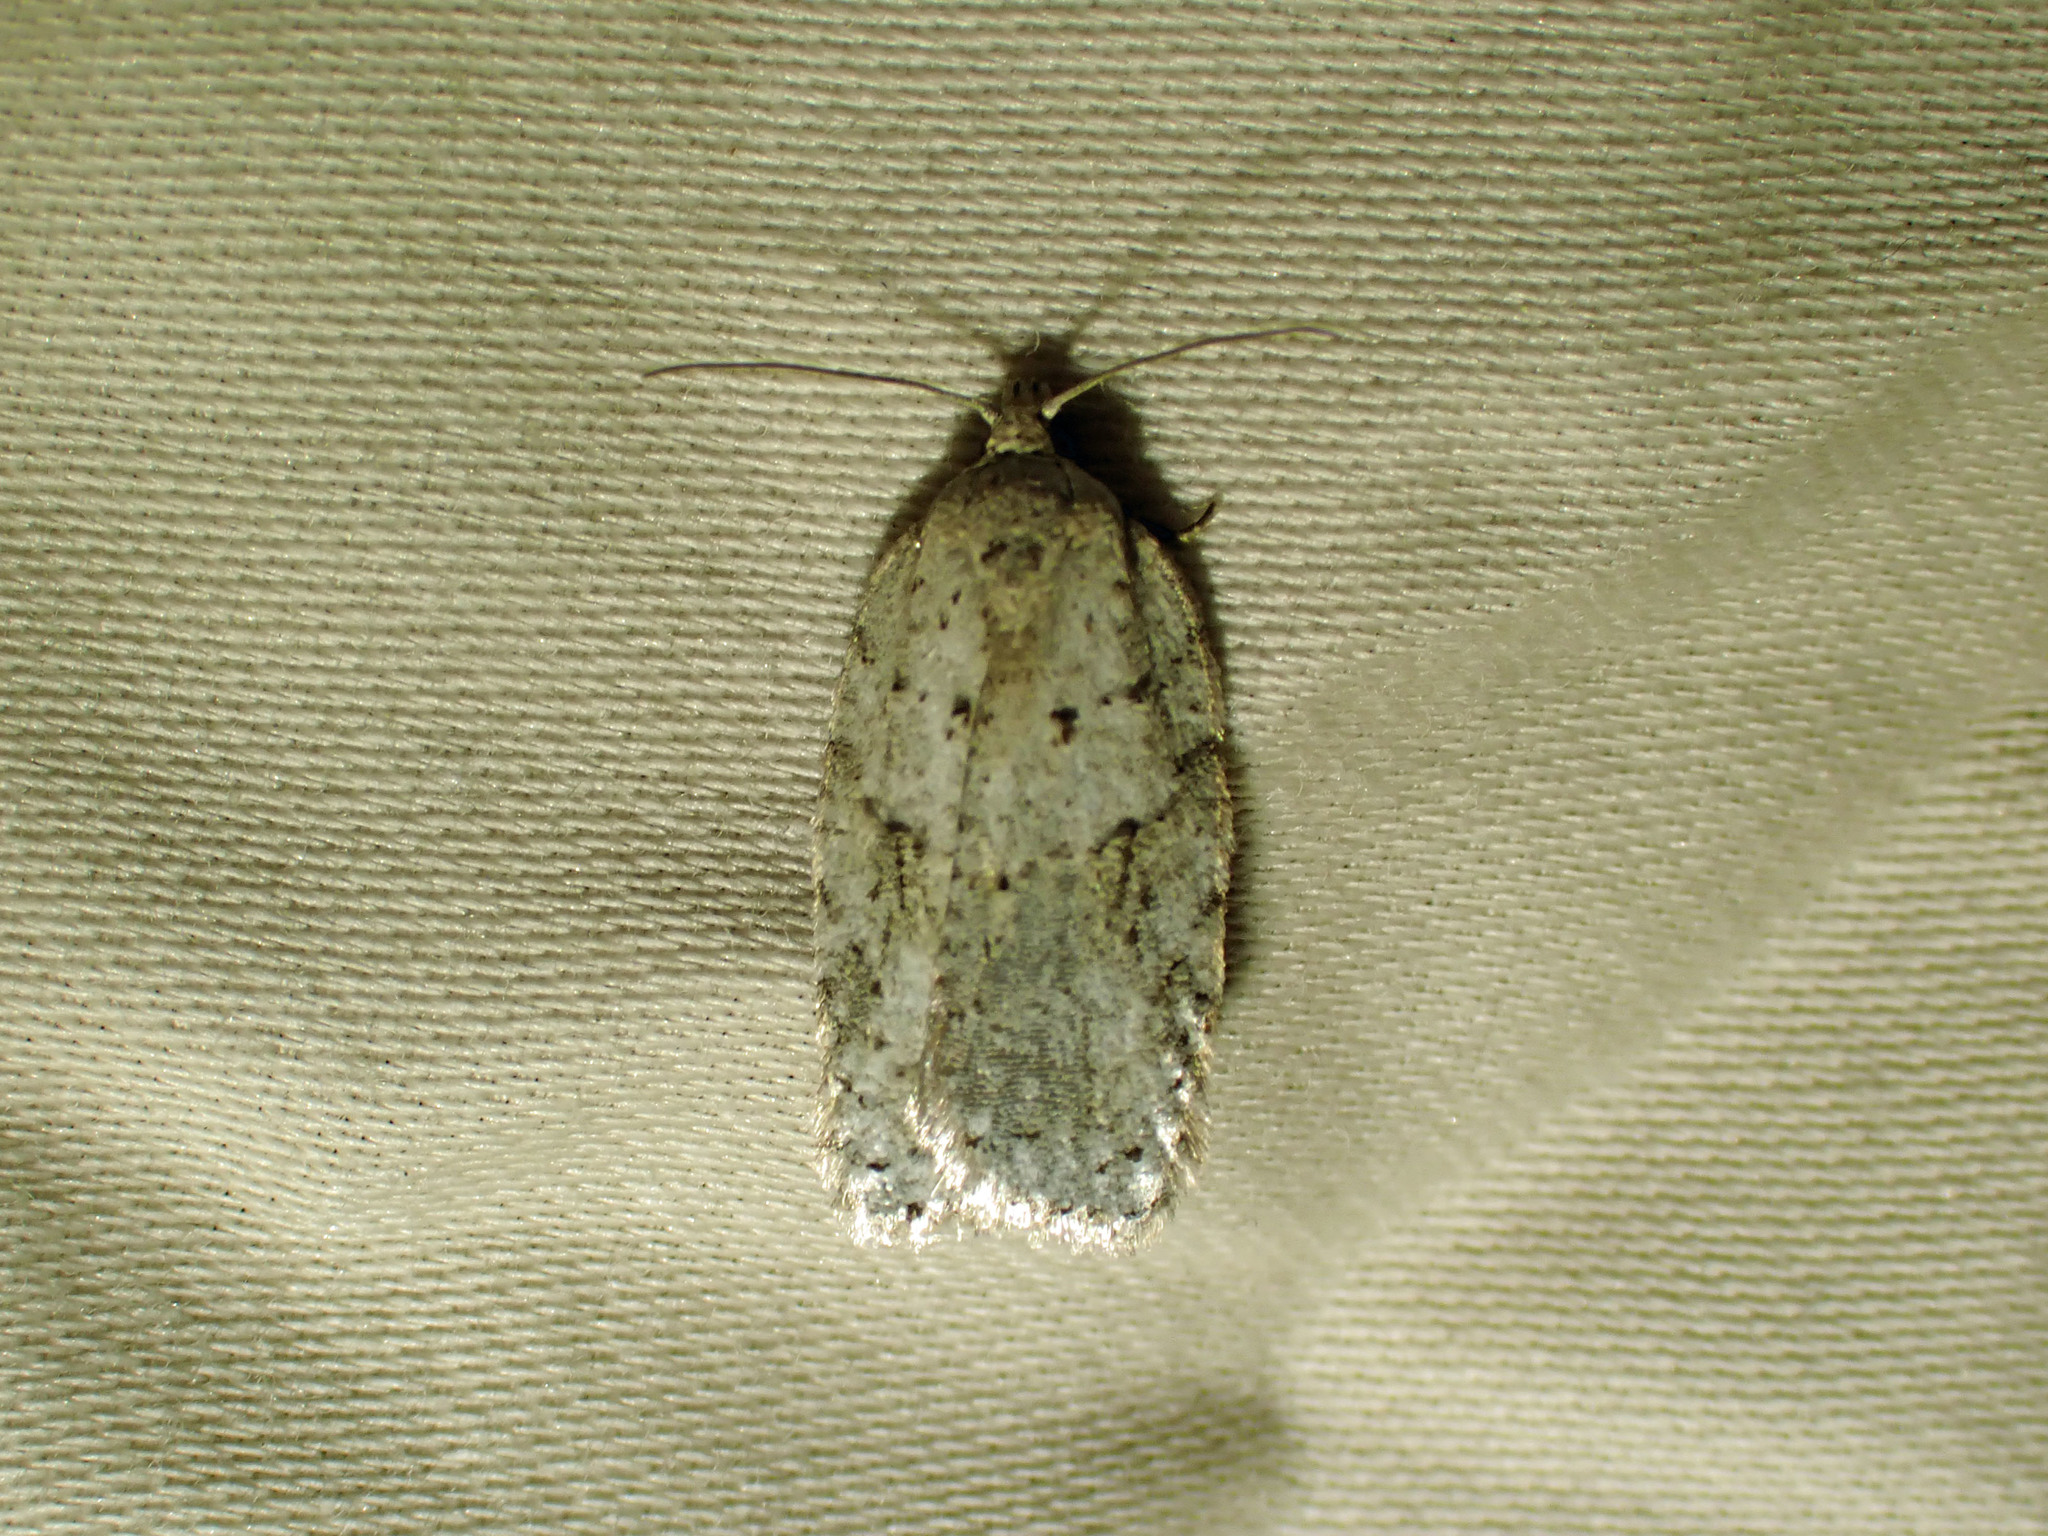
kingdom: Animalia
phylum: Arthropoda
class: Insecta
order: Lepidoptera
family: Tortricidae
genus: Acleris
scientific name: Acleris placidana
